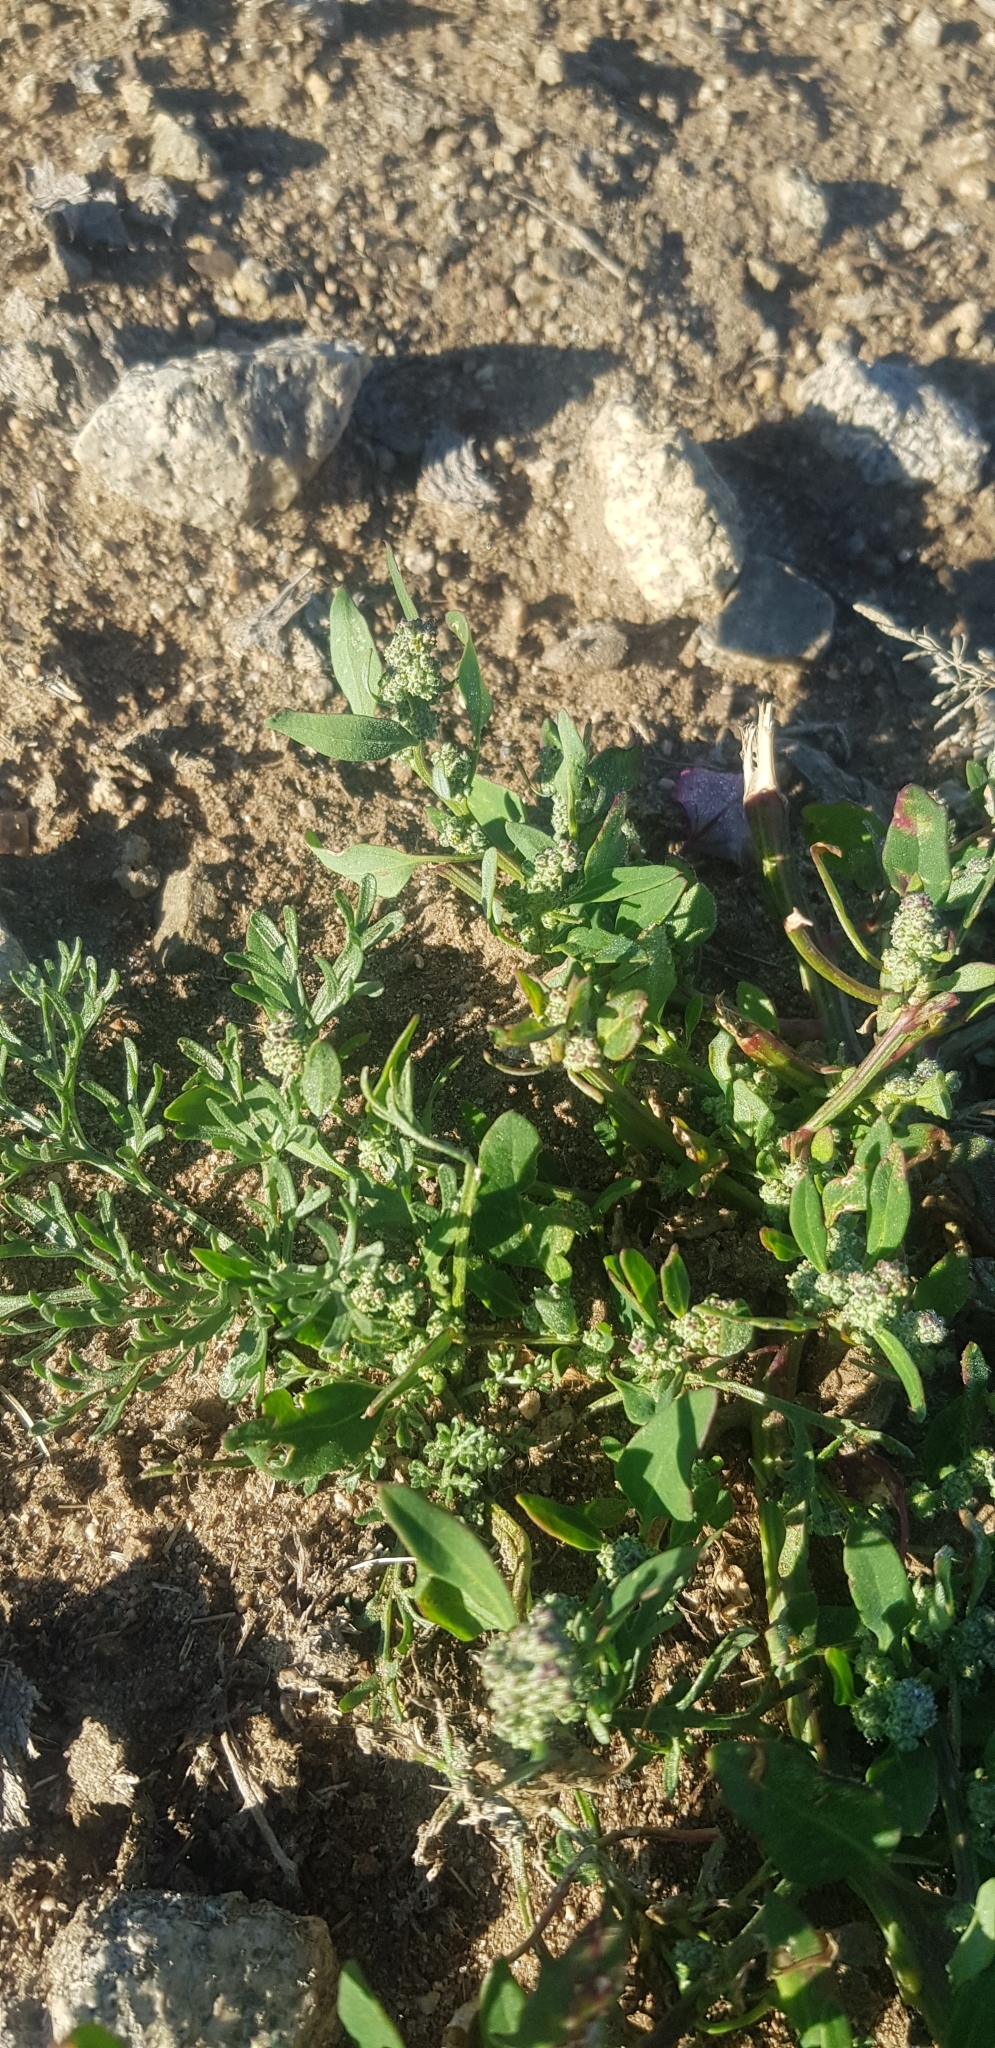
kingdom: Plantae
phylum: Tracheophyta
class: Magnoliopsida
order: Caryophyllales
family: Amaranthaceae
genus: Chenopodium
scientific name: Chenopodium album
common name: Fat-hen
